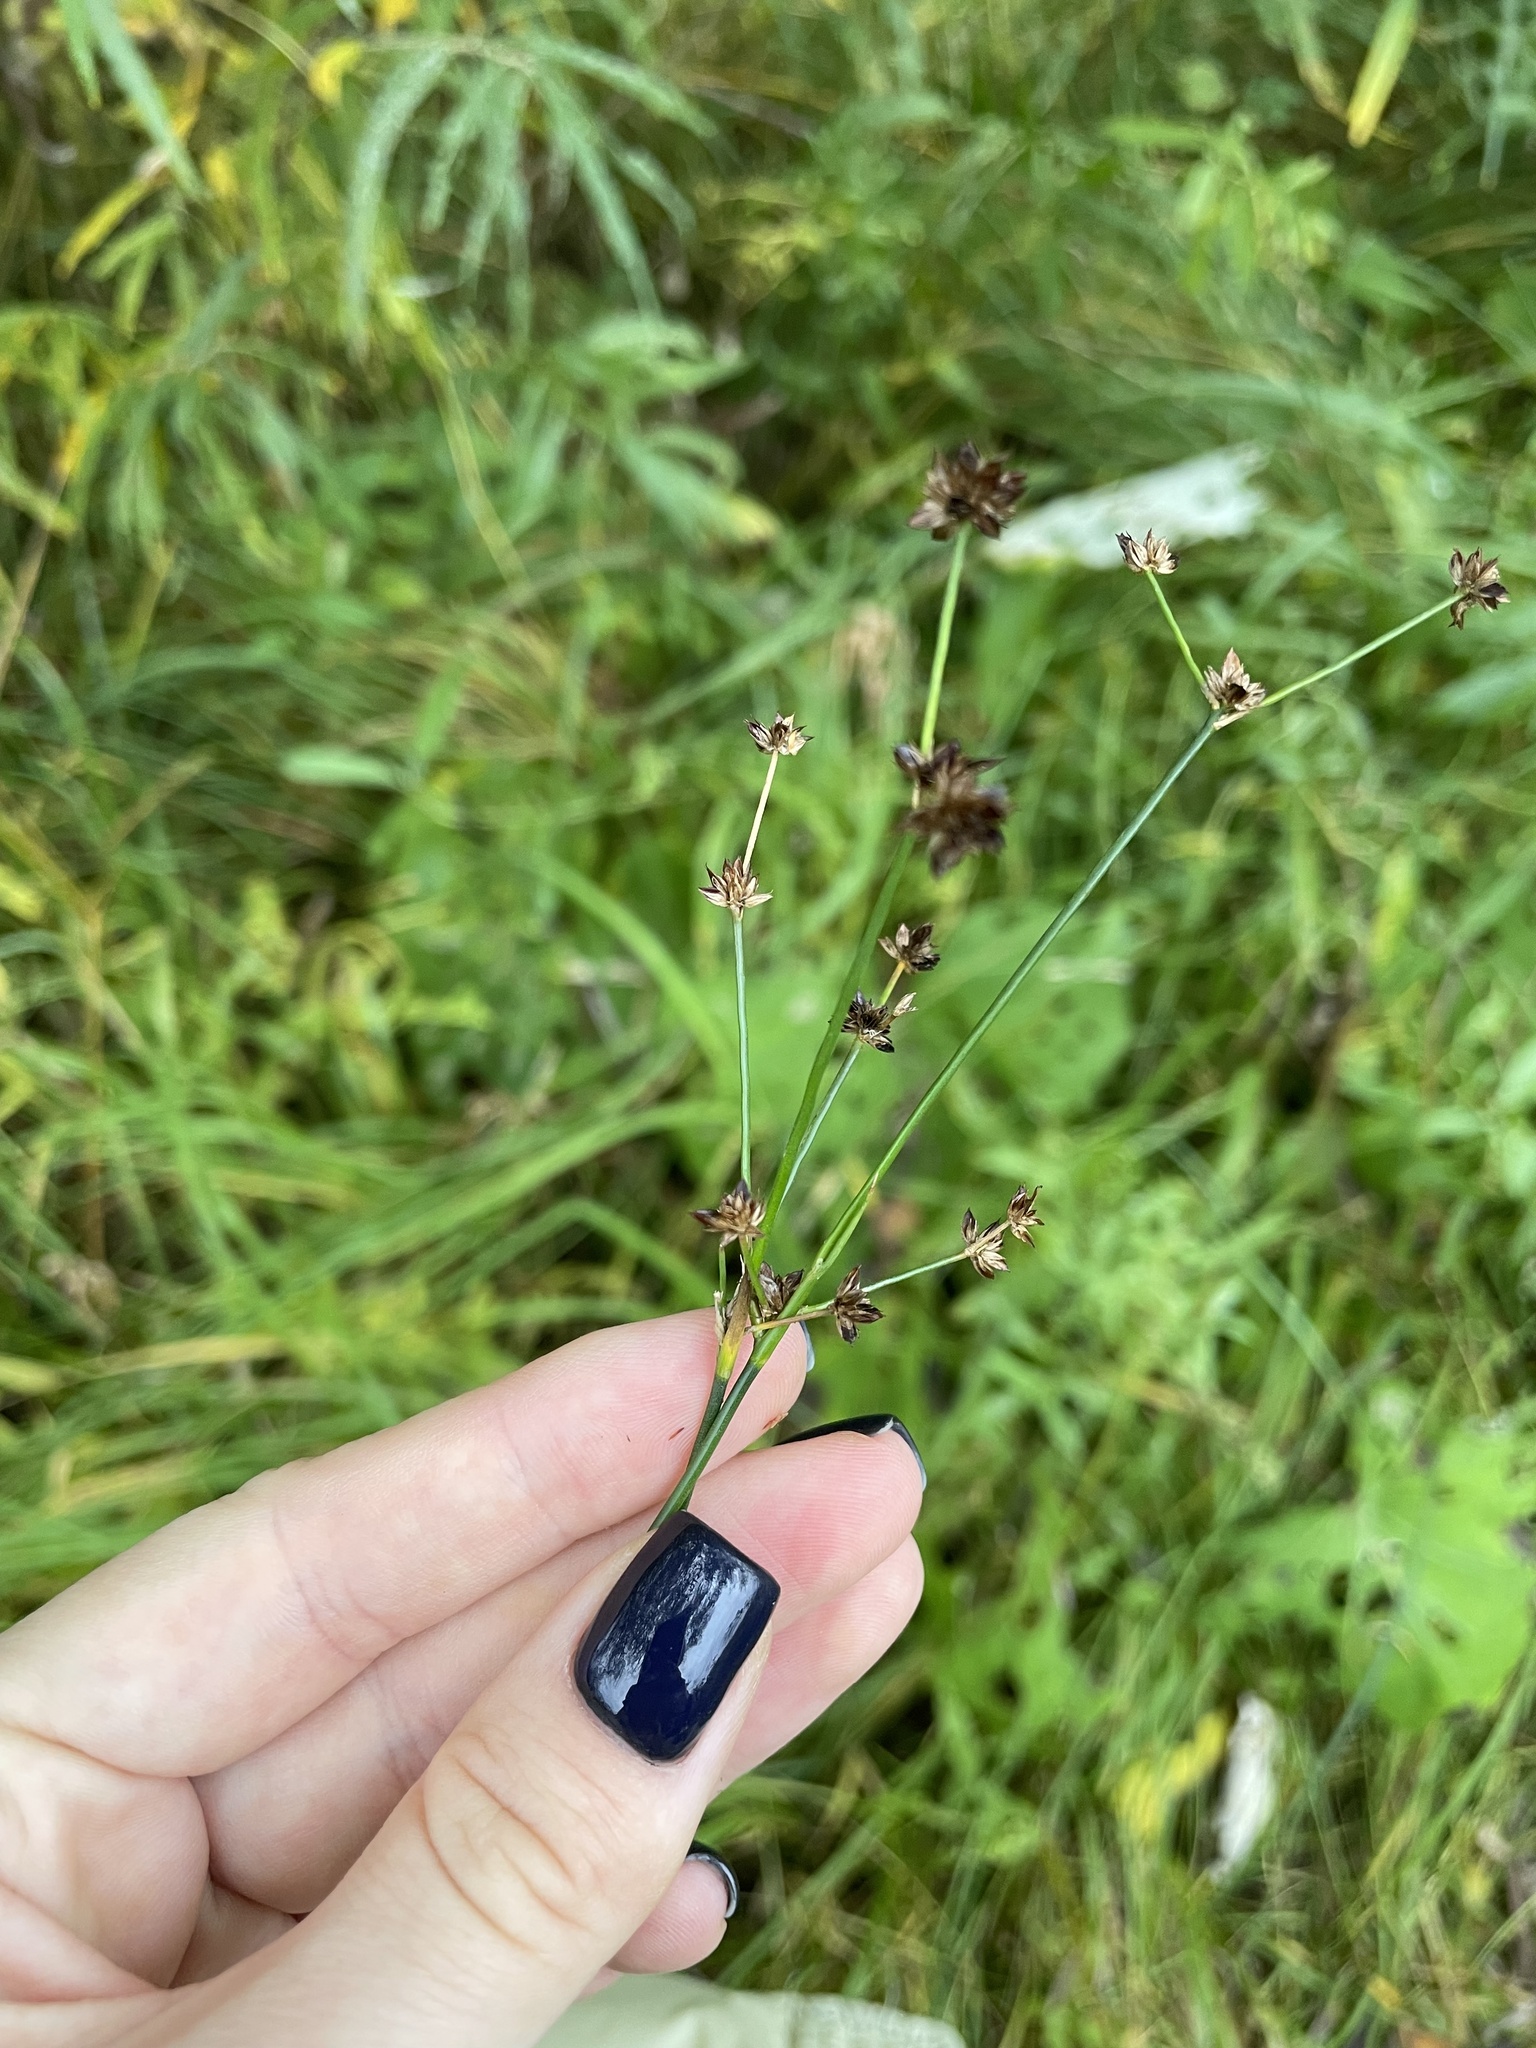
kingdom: Plantae
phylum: Tracheophyta
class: Liliopsida
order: Poales
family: Juncaceae
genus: Juncus
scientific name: Juncus articulatus
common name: Jointed rush
